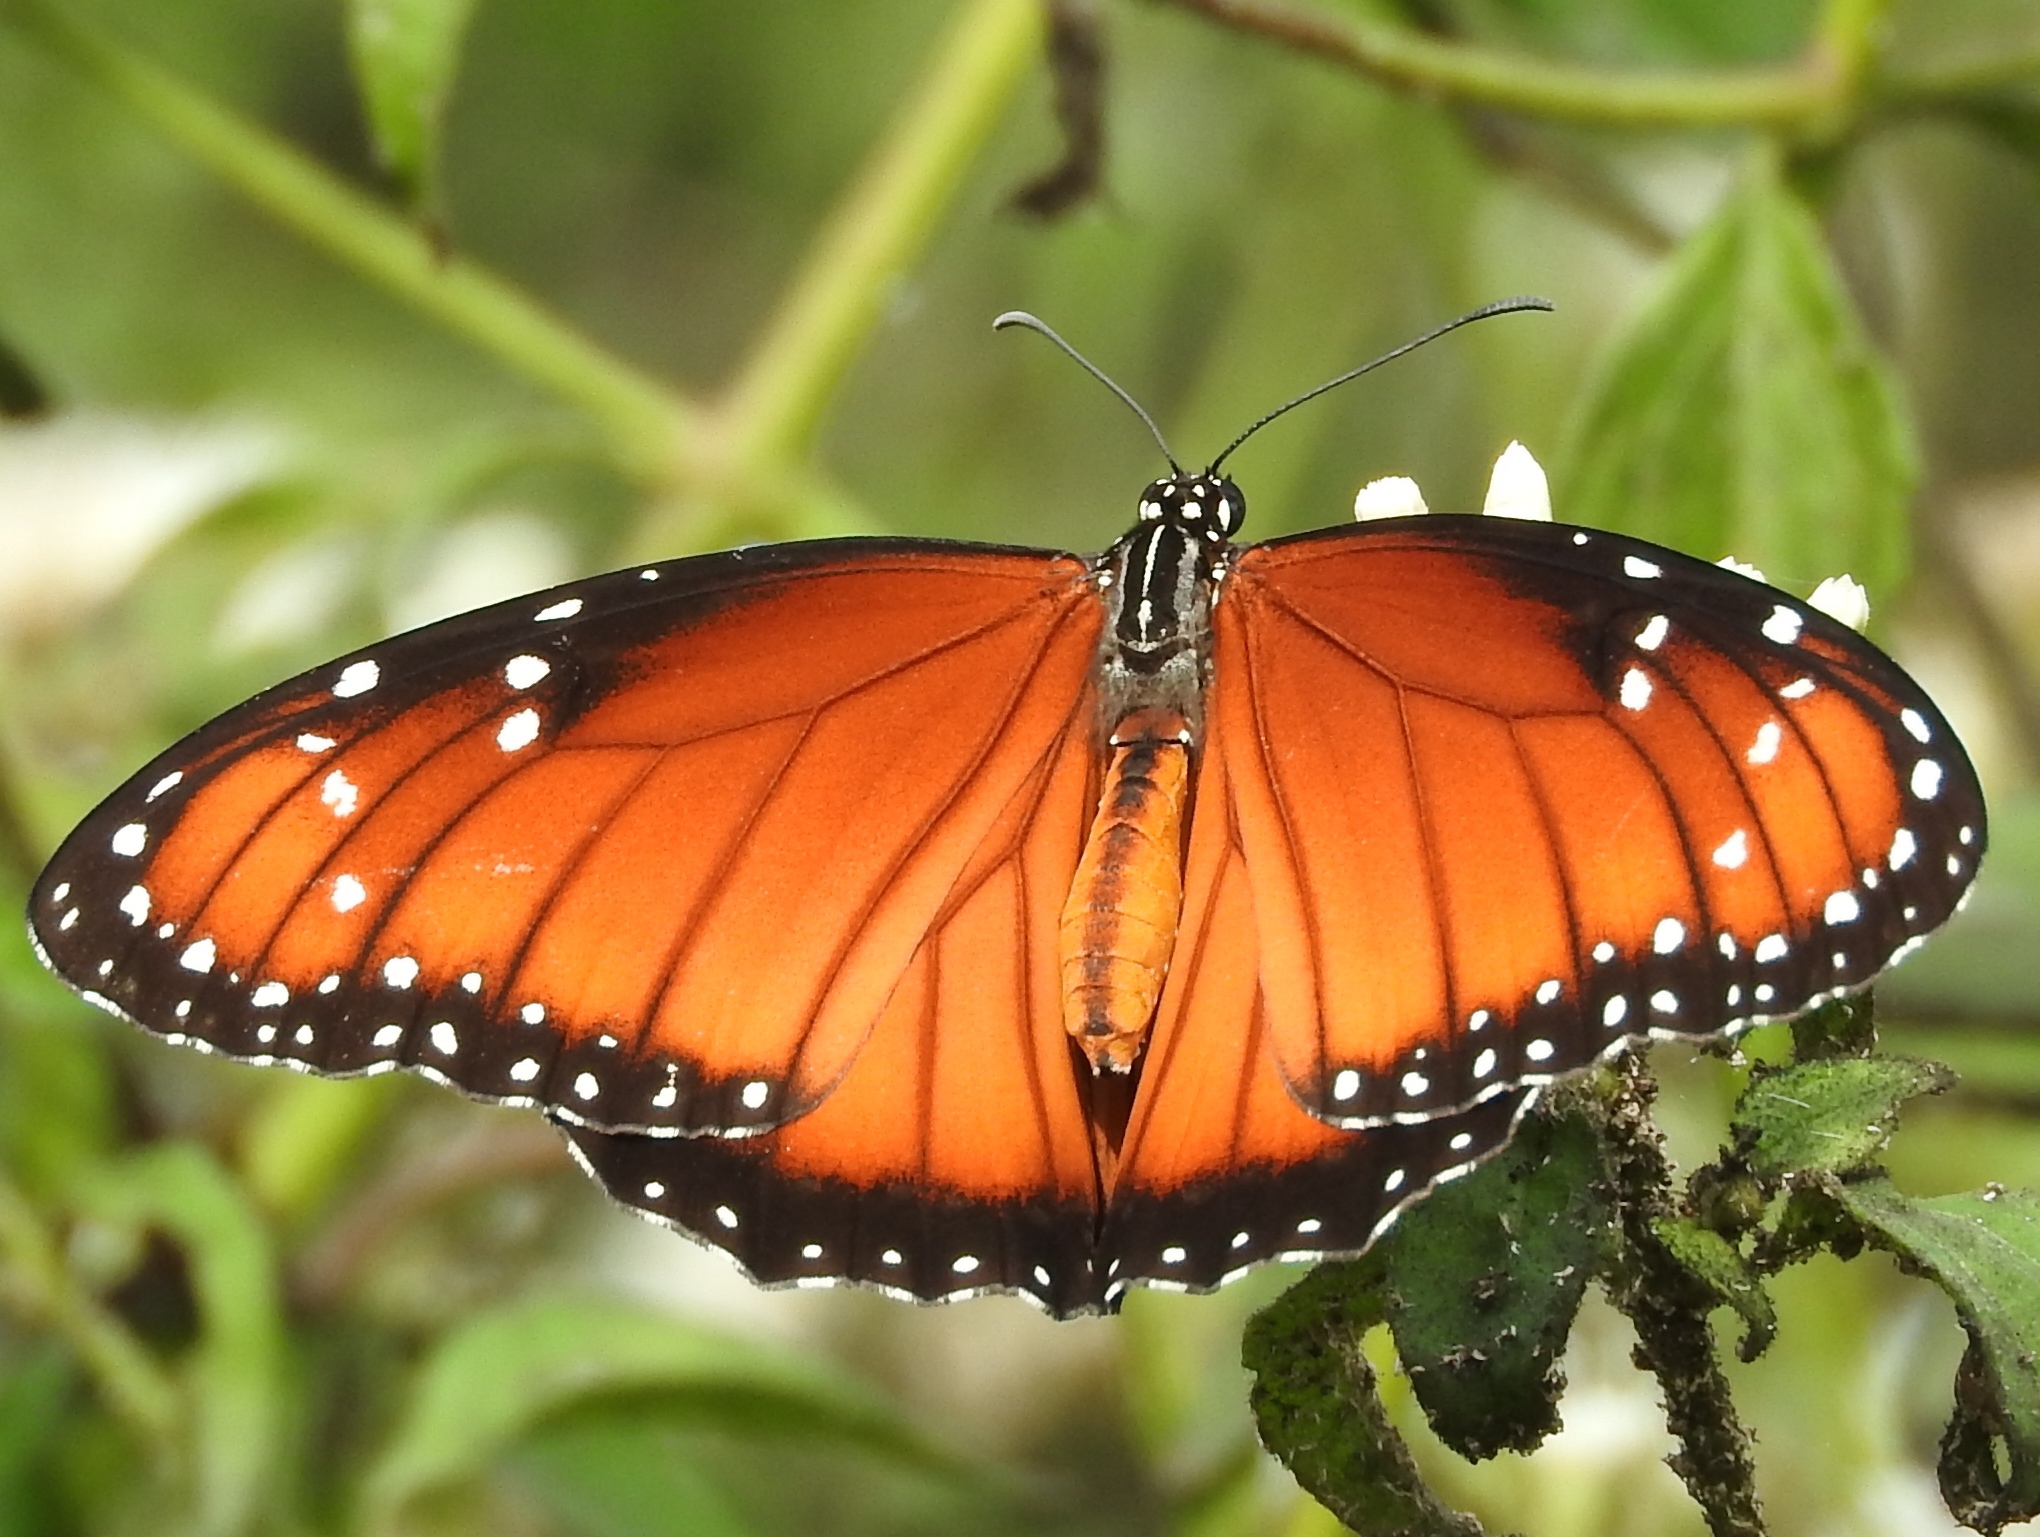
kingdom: Animalia
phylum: Arthropoda
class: Insecta
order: Lepidoptera
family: Nymphalidae
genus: Danaus
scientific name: Danaus eresimus
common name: Soldier
